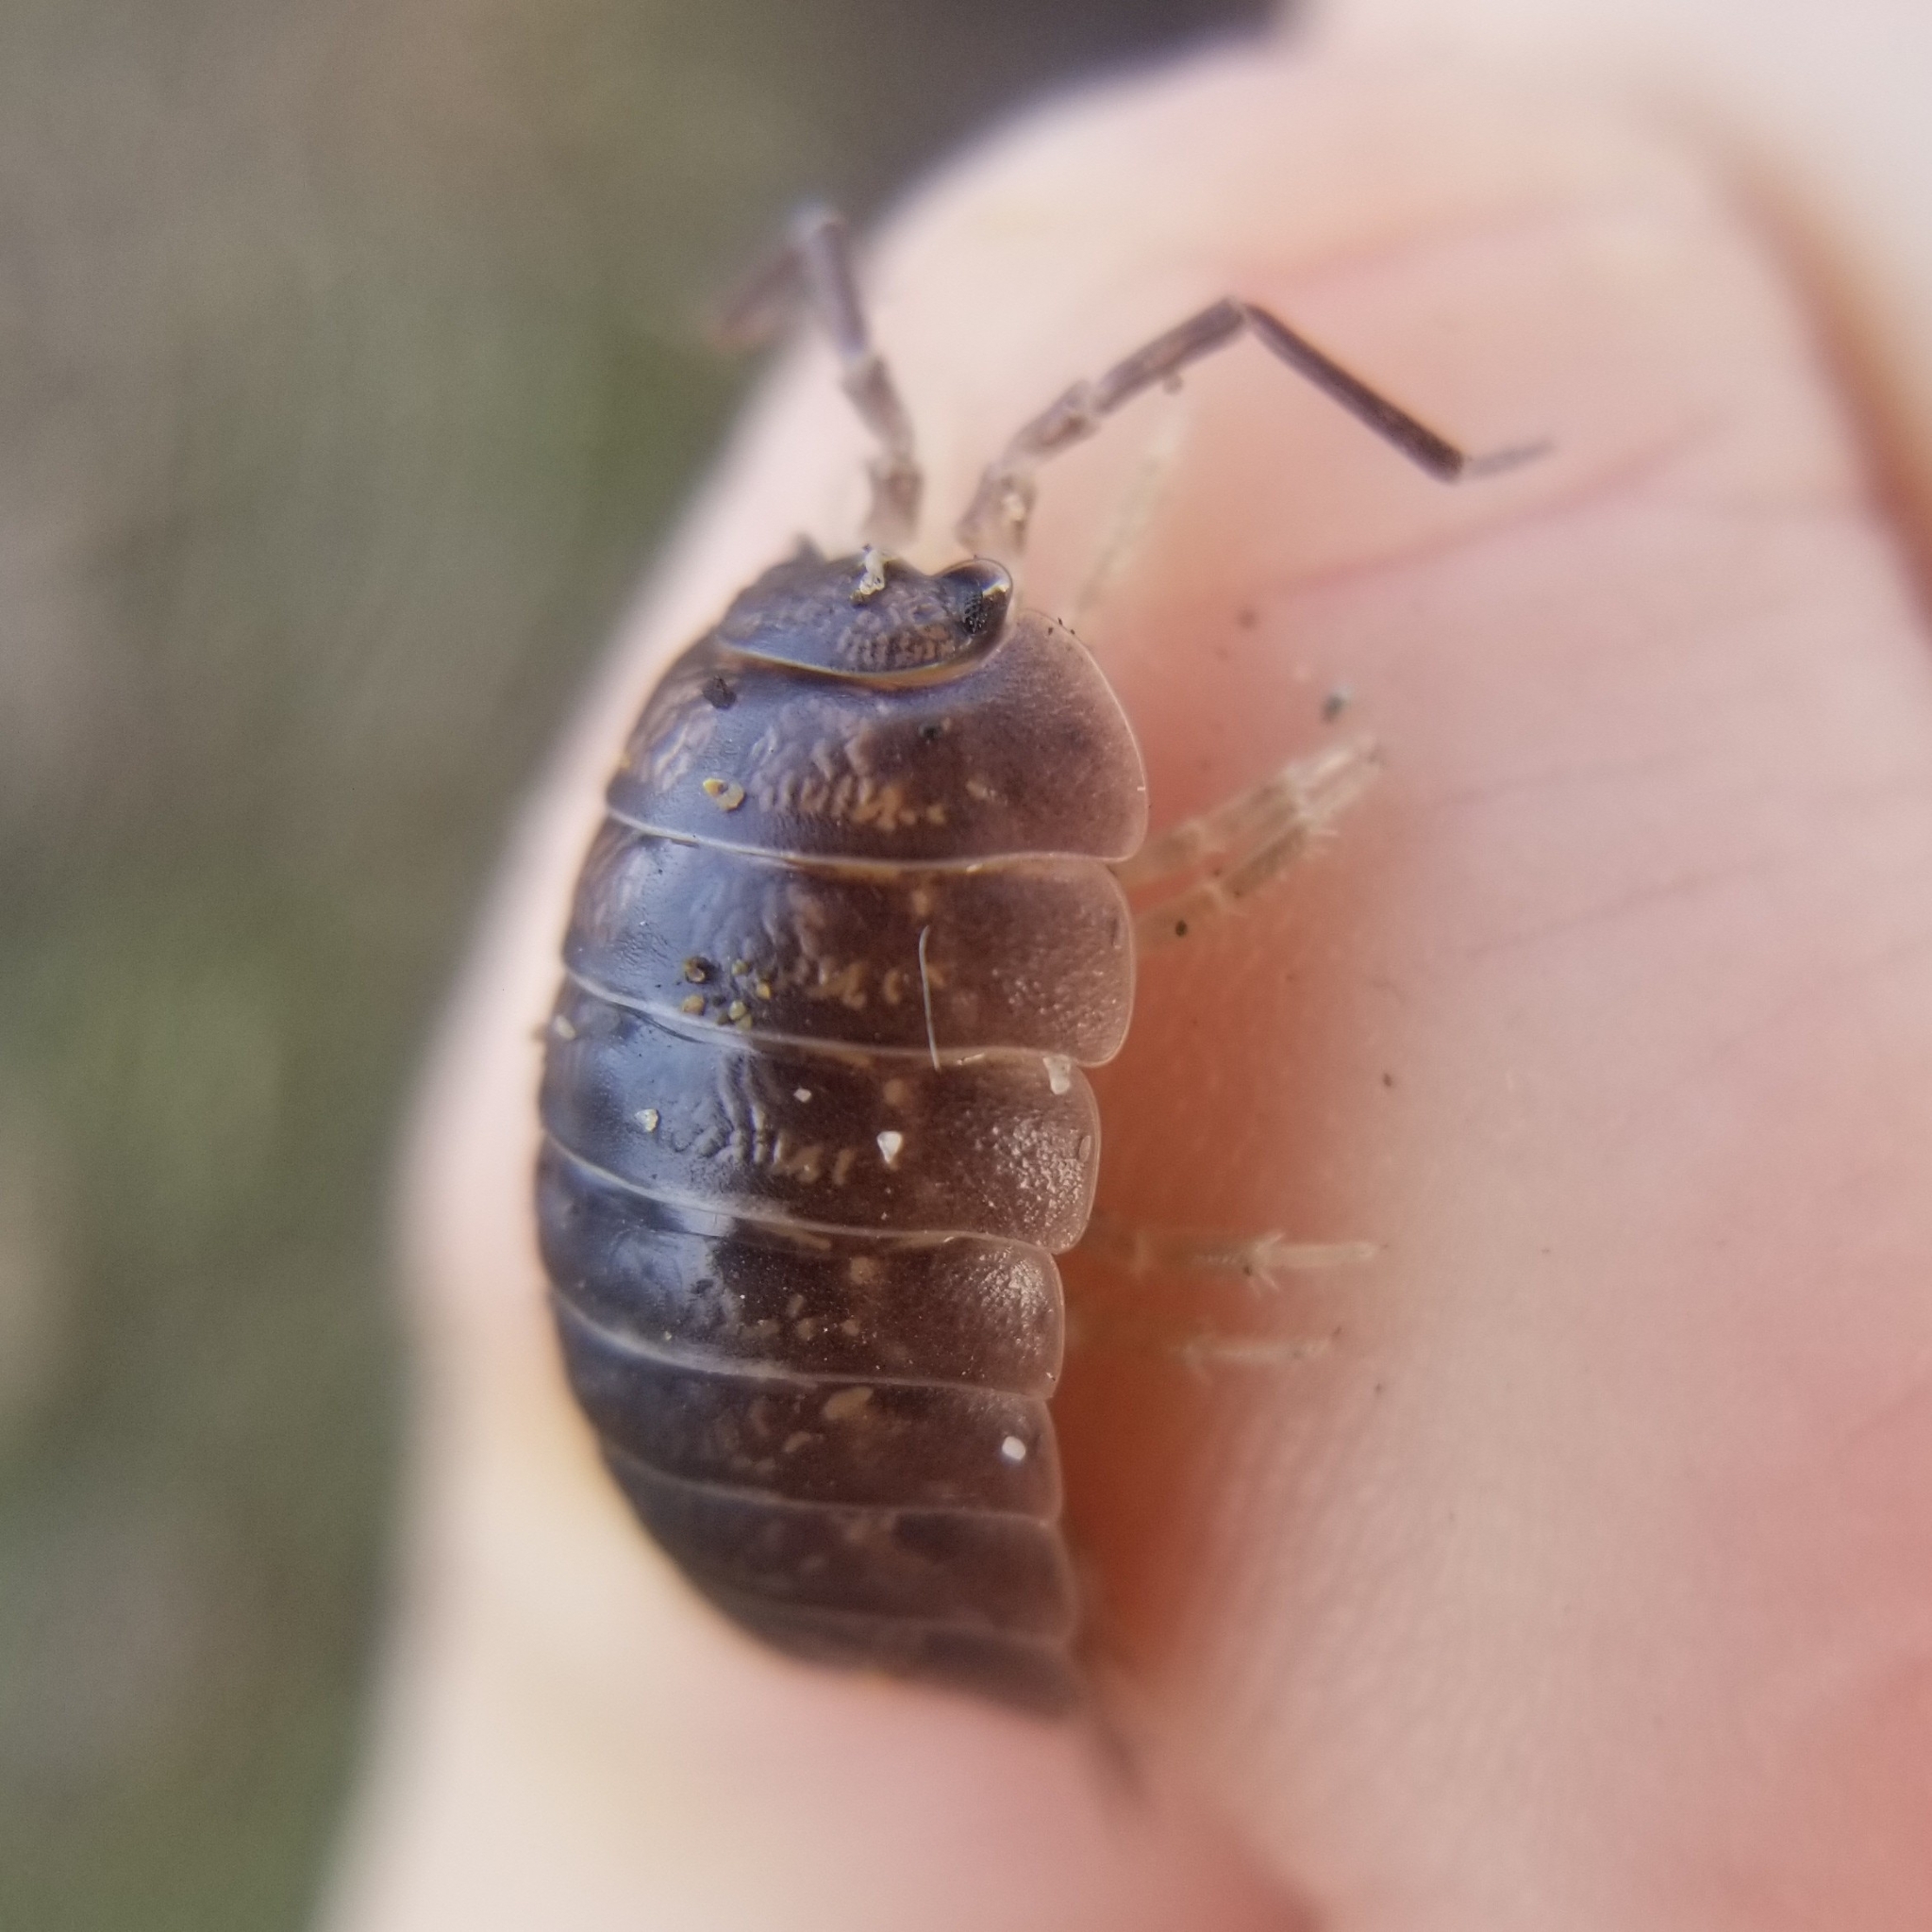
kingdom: Animalia
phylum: Arthropoda
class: Malacostraca
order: Isopoda
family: Porcellionidae
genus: Porcellio
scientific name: Porcellio laevis
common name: Swift woodlouse
